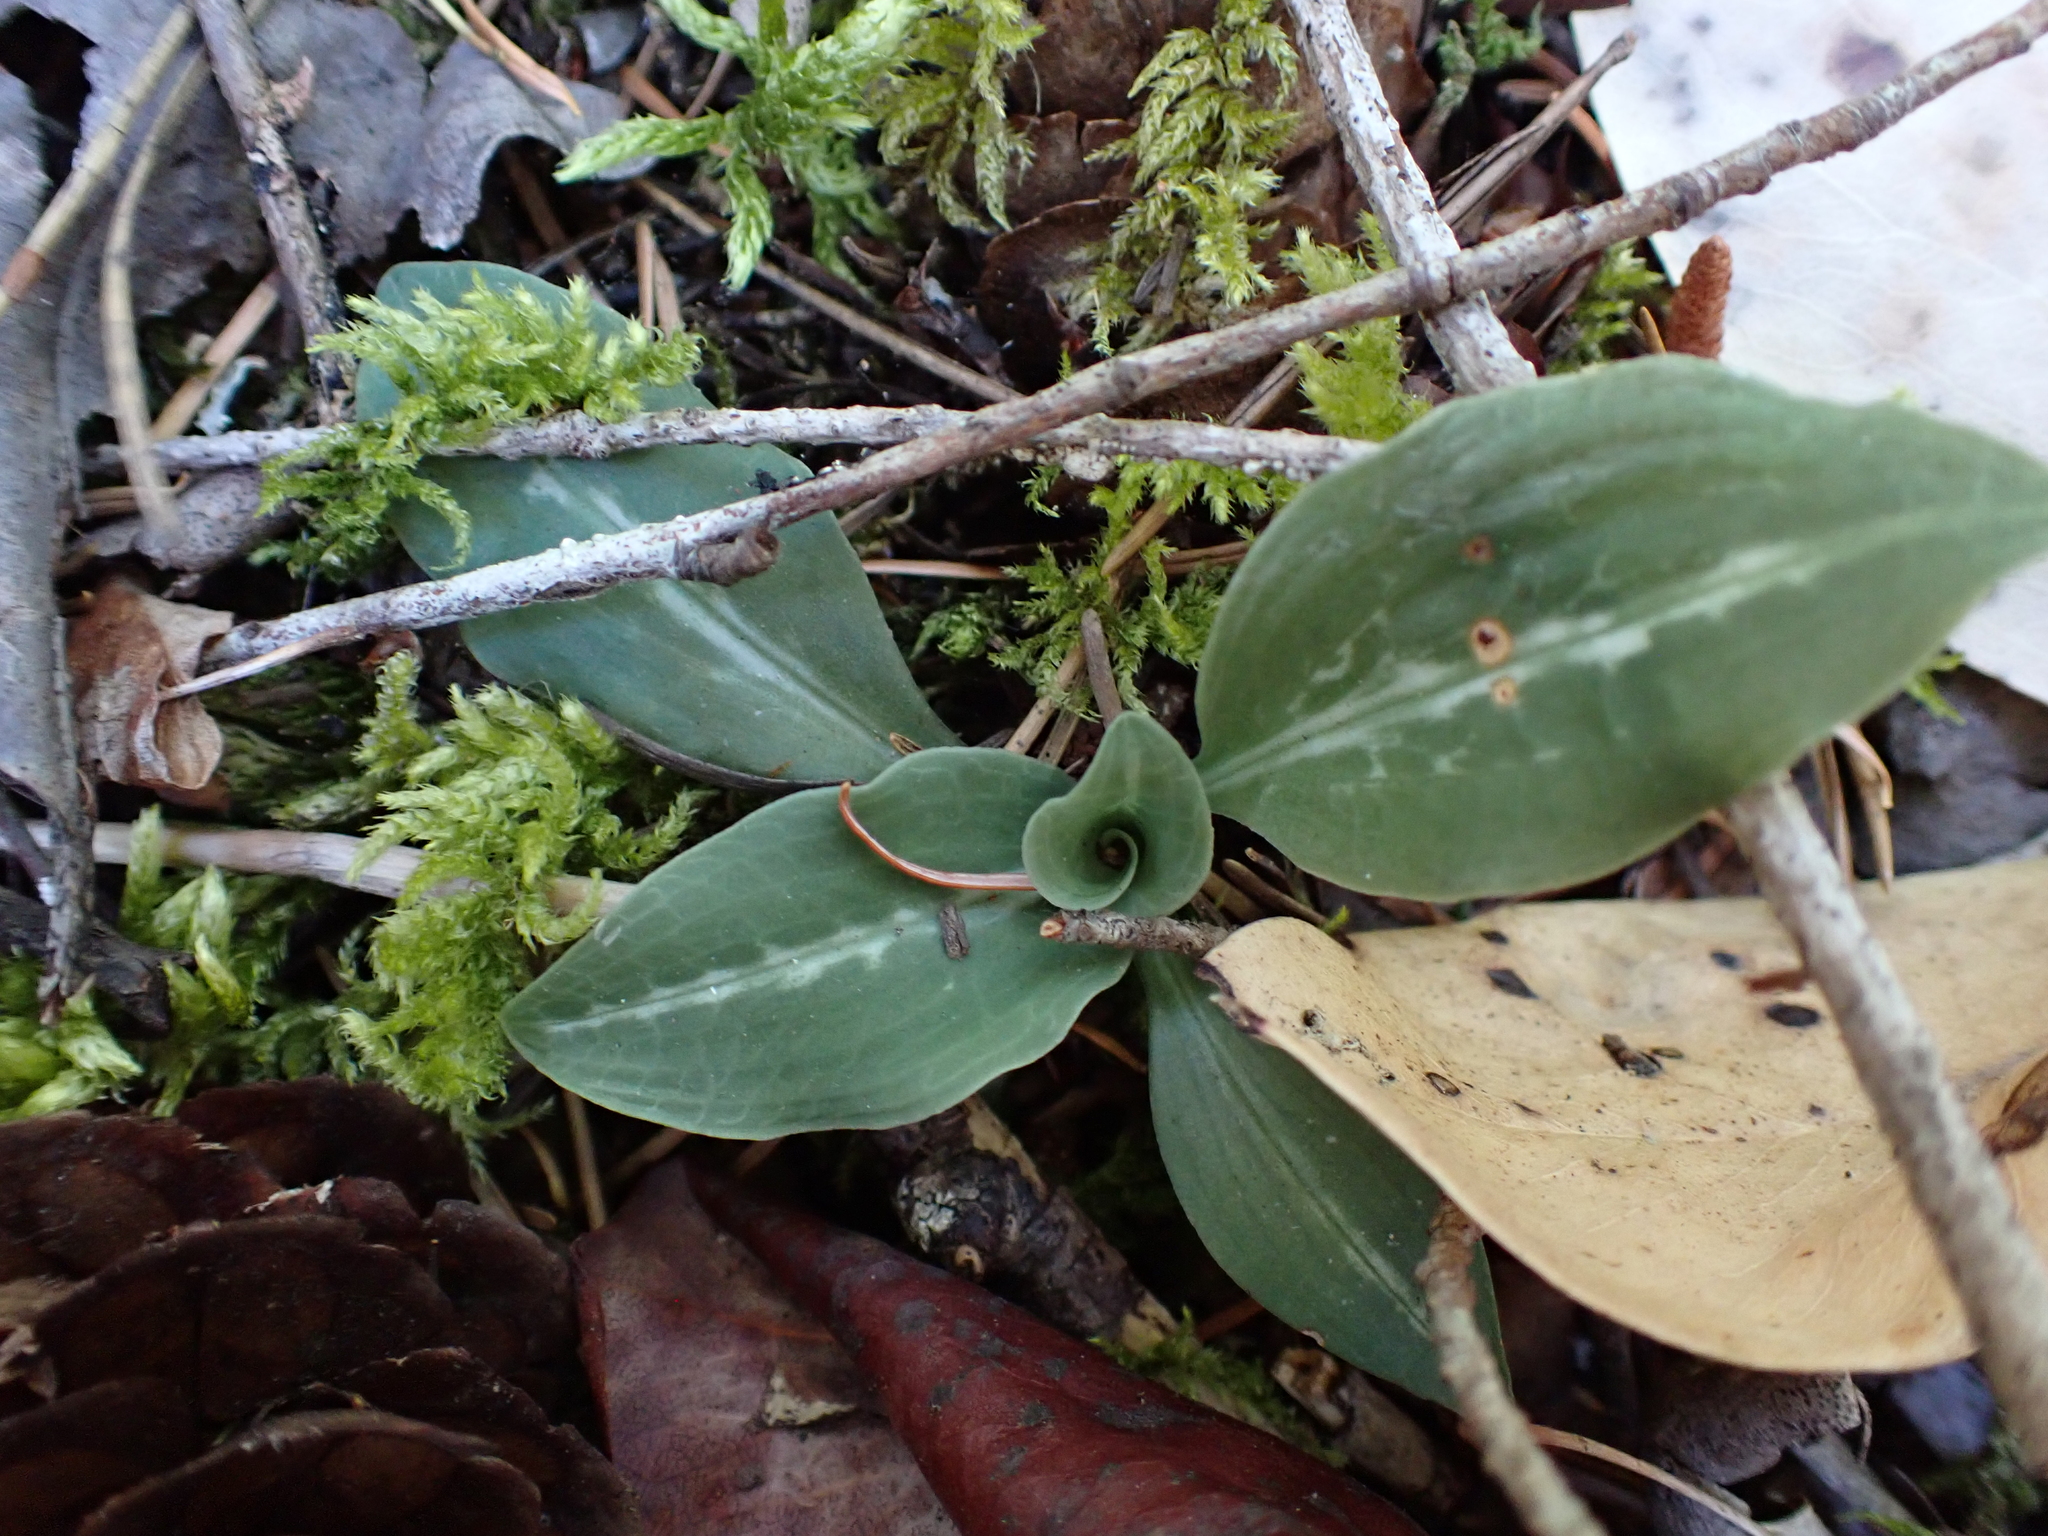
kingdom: Plantae
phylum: Tracheophyta
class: Liliopsida
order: Asparagales
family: Orchidaceae
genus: Goodyera
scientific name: Goodyera oblongifolia
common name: Giant rattlesnake-plantain
